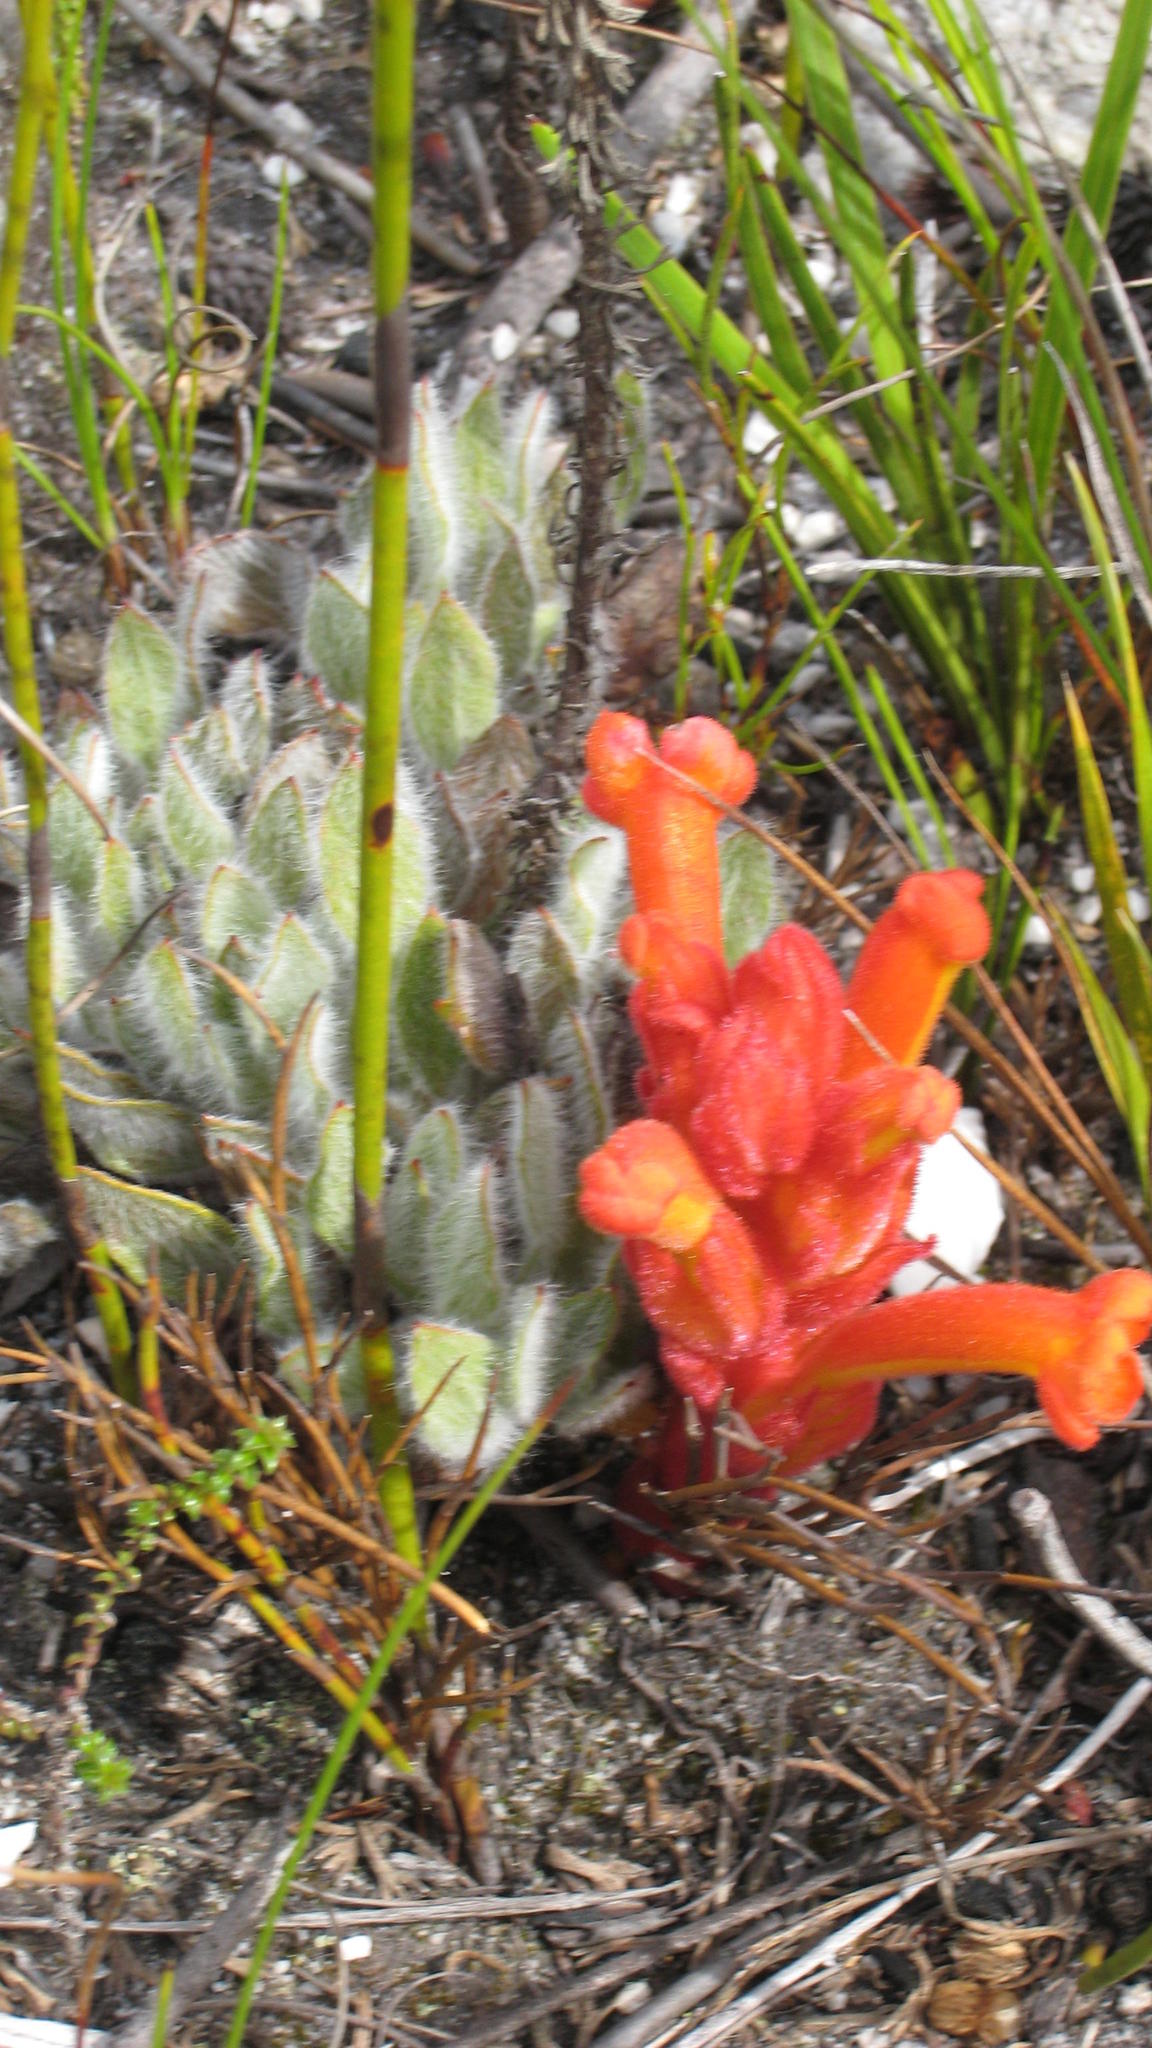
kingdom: Plantae
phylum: Tracheophyta
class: Magnoliopsida
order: Lamiales
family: Orobanchaceae
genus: Harveya
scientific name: Harveya bolusii
